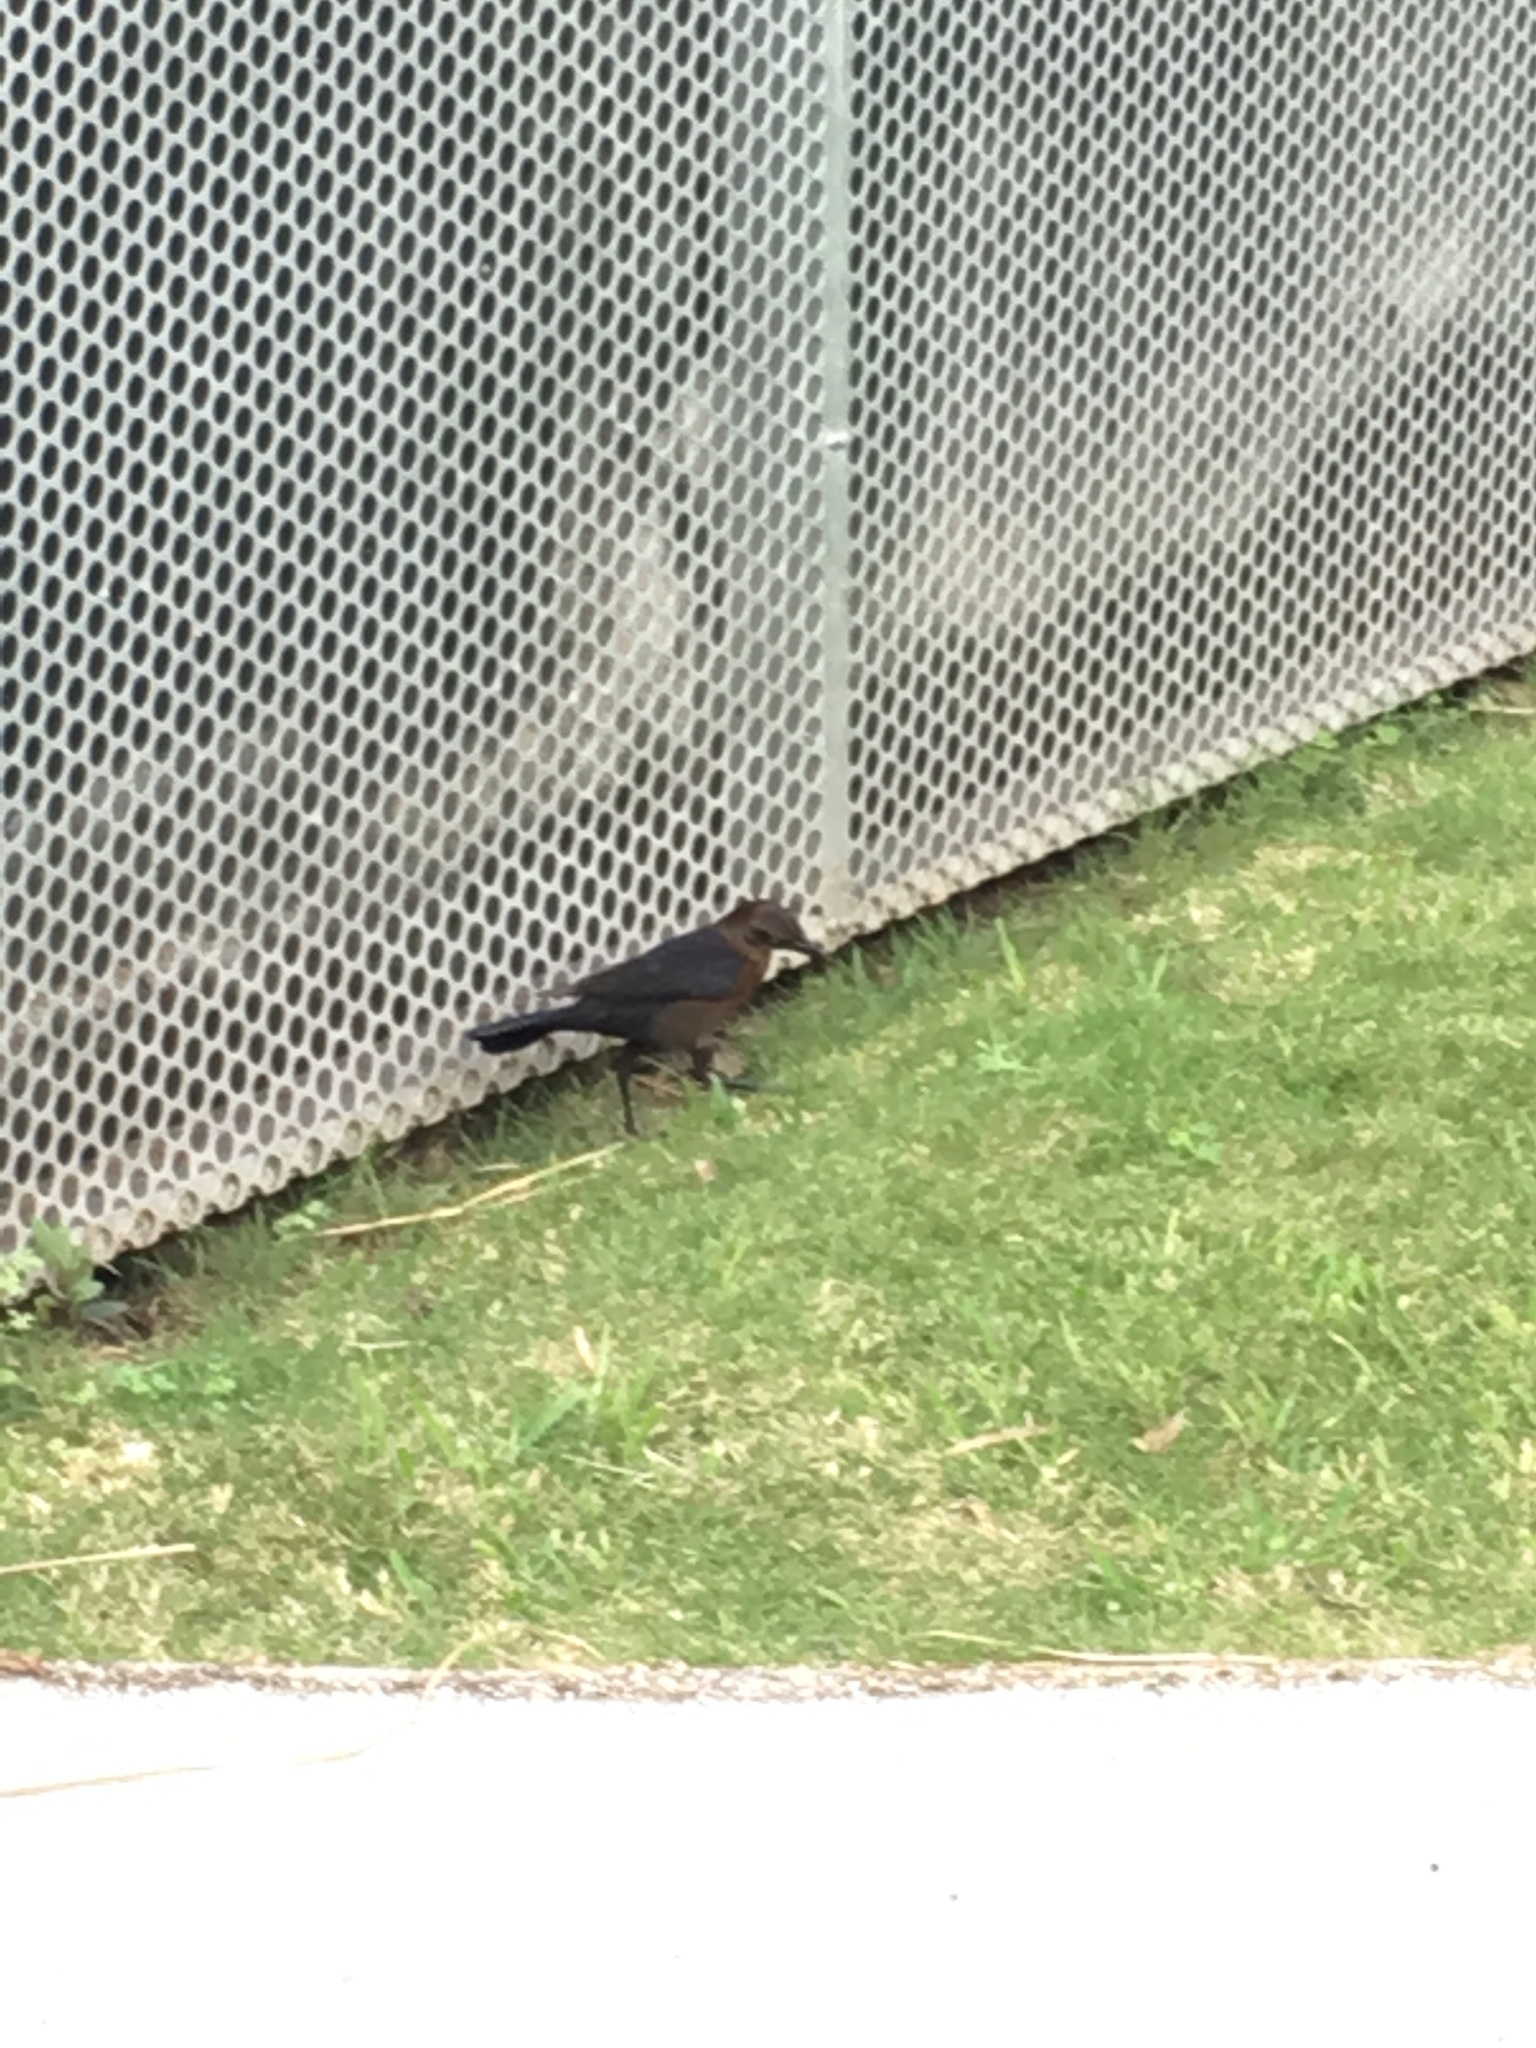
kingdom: Animalia
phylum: Chordata
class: Aves
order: Passeriformes
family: Icteridae
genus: Quiscalus
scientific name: Quiscalus mexicanus
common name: Great-tailed grackle
